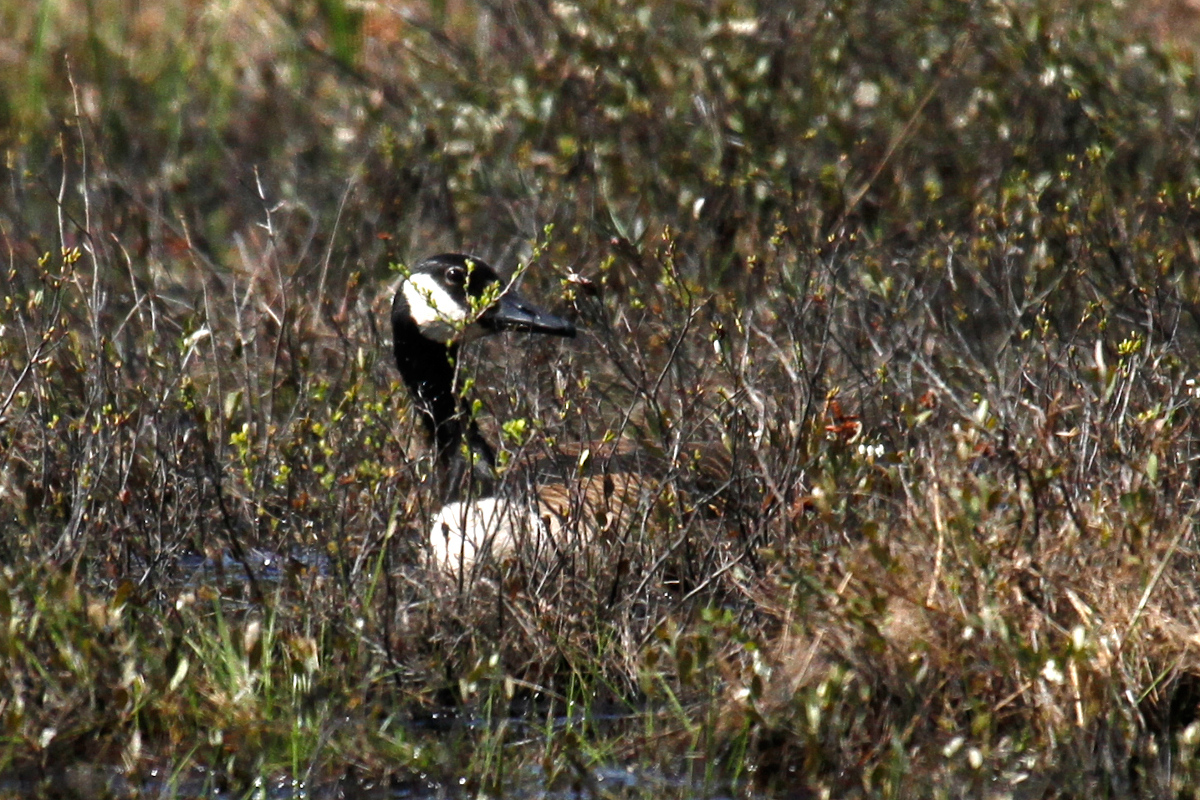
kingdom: Animalia
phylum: Chordata
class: Aves
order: Anseriformes
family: Anatidae
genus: Branta
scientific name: Branta canadensis
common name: Canada goose
